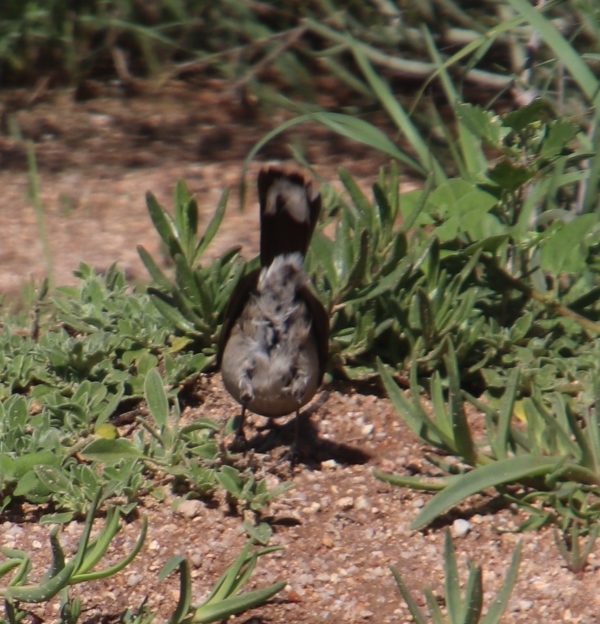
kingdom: Animalia
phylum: Chordata
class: Aves
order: Passeriformes
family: Muscicapidae
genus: Erythropygia
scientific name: Erythropygia coryphoeus
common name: Karoo scrub robin
